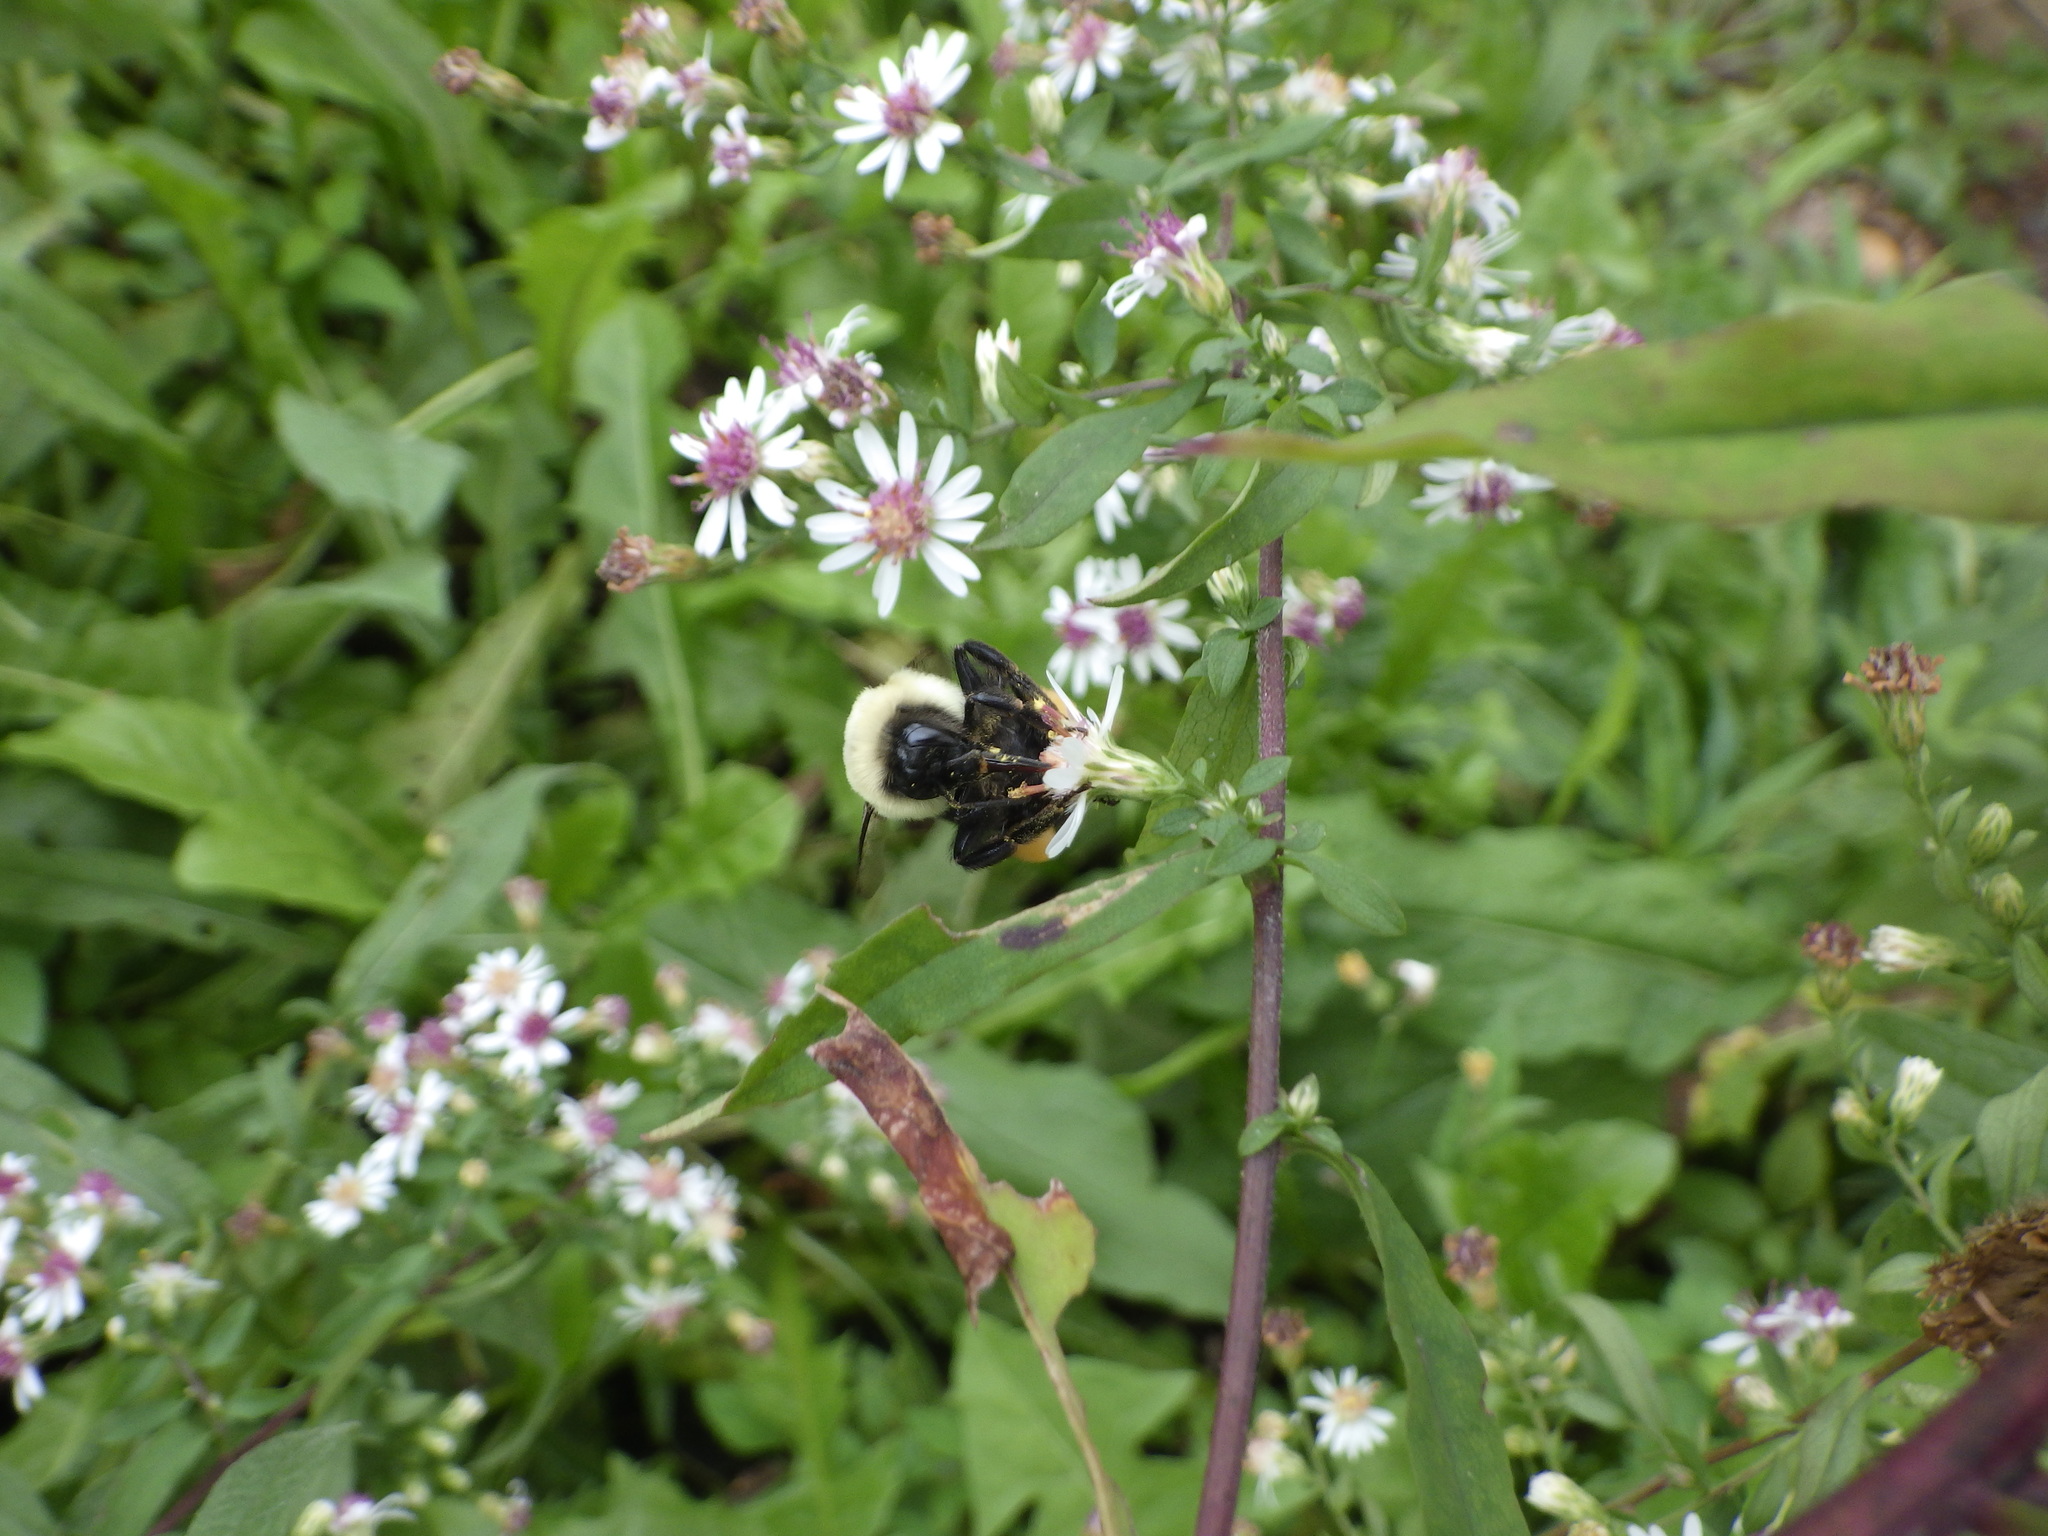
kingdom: Animalia
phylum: Arthropoda
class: Insecta
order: Hymenoptera
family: Apidae
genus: Bombus
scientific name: Bombus impatiens
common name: Common eastern bumble bee
